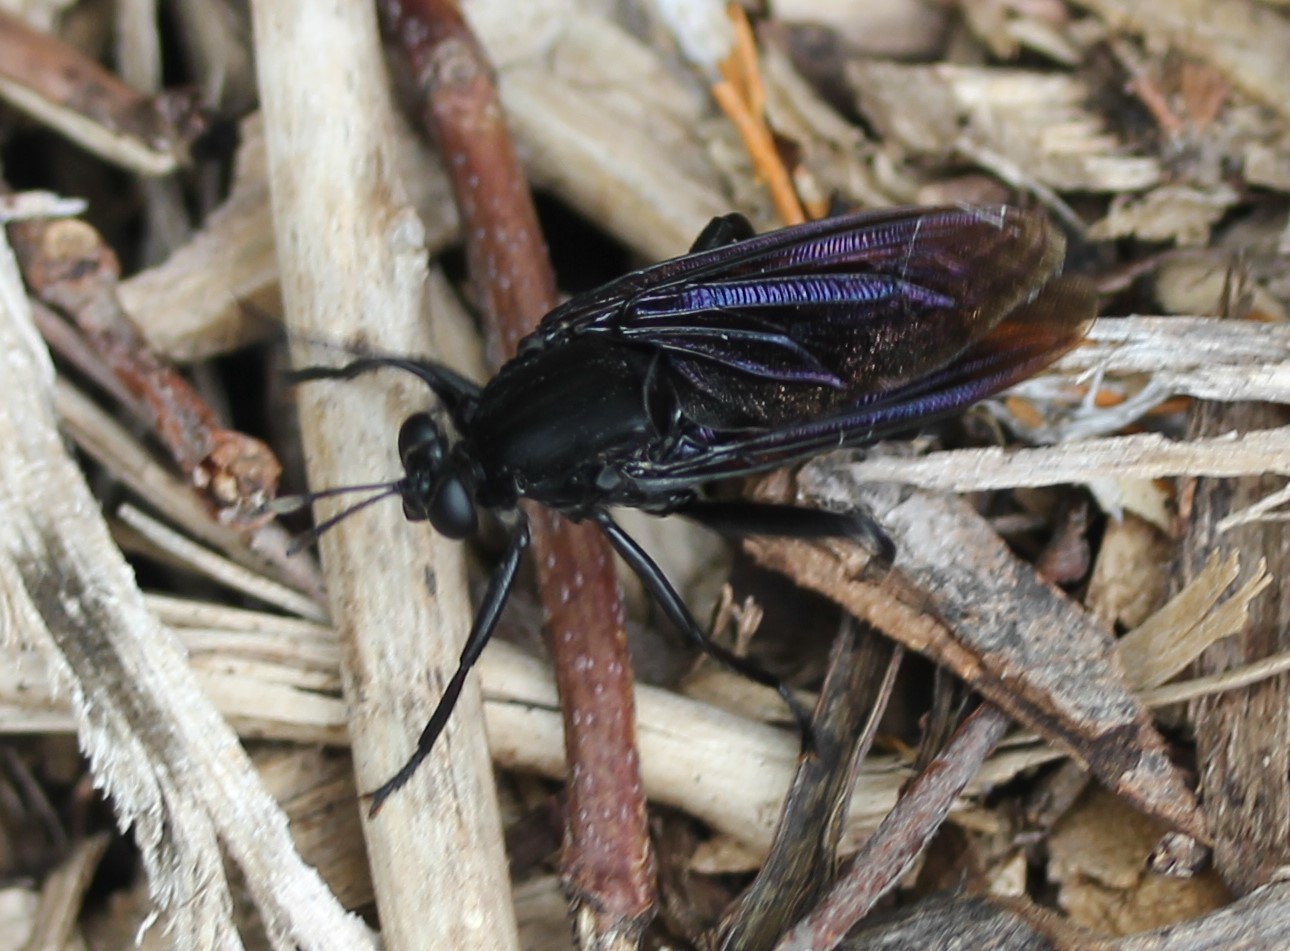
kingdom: Animalia
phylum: Arthropoda
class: Insecta
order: Diptera
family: Mydidae
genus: Mydas
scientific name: Mydas clavatus
